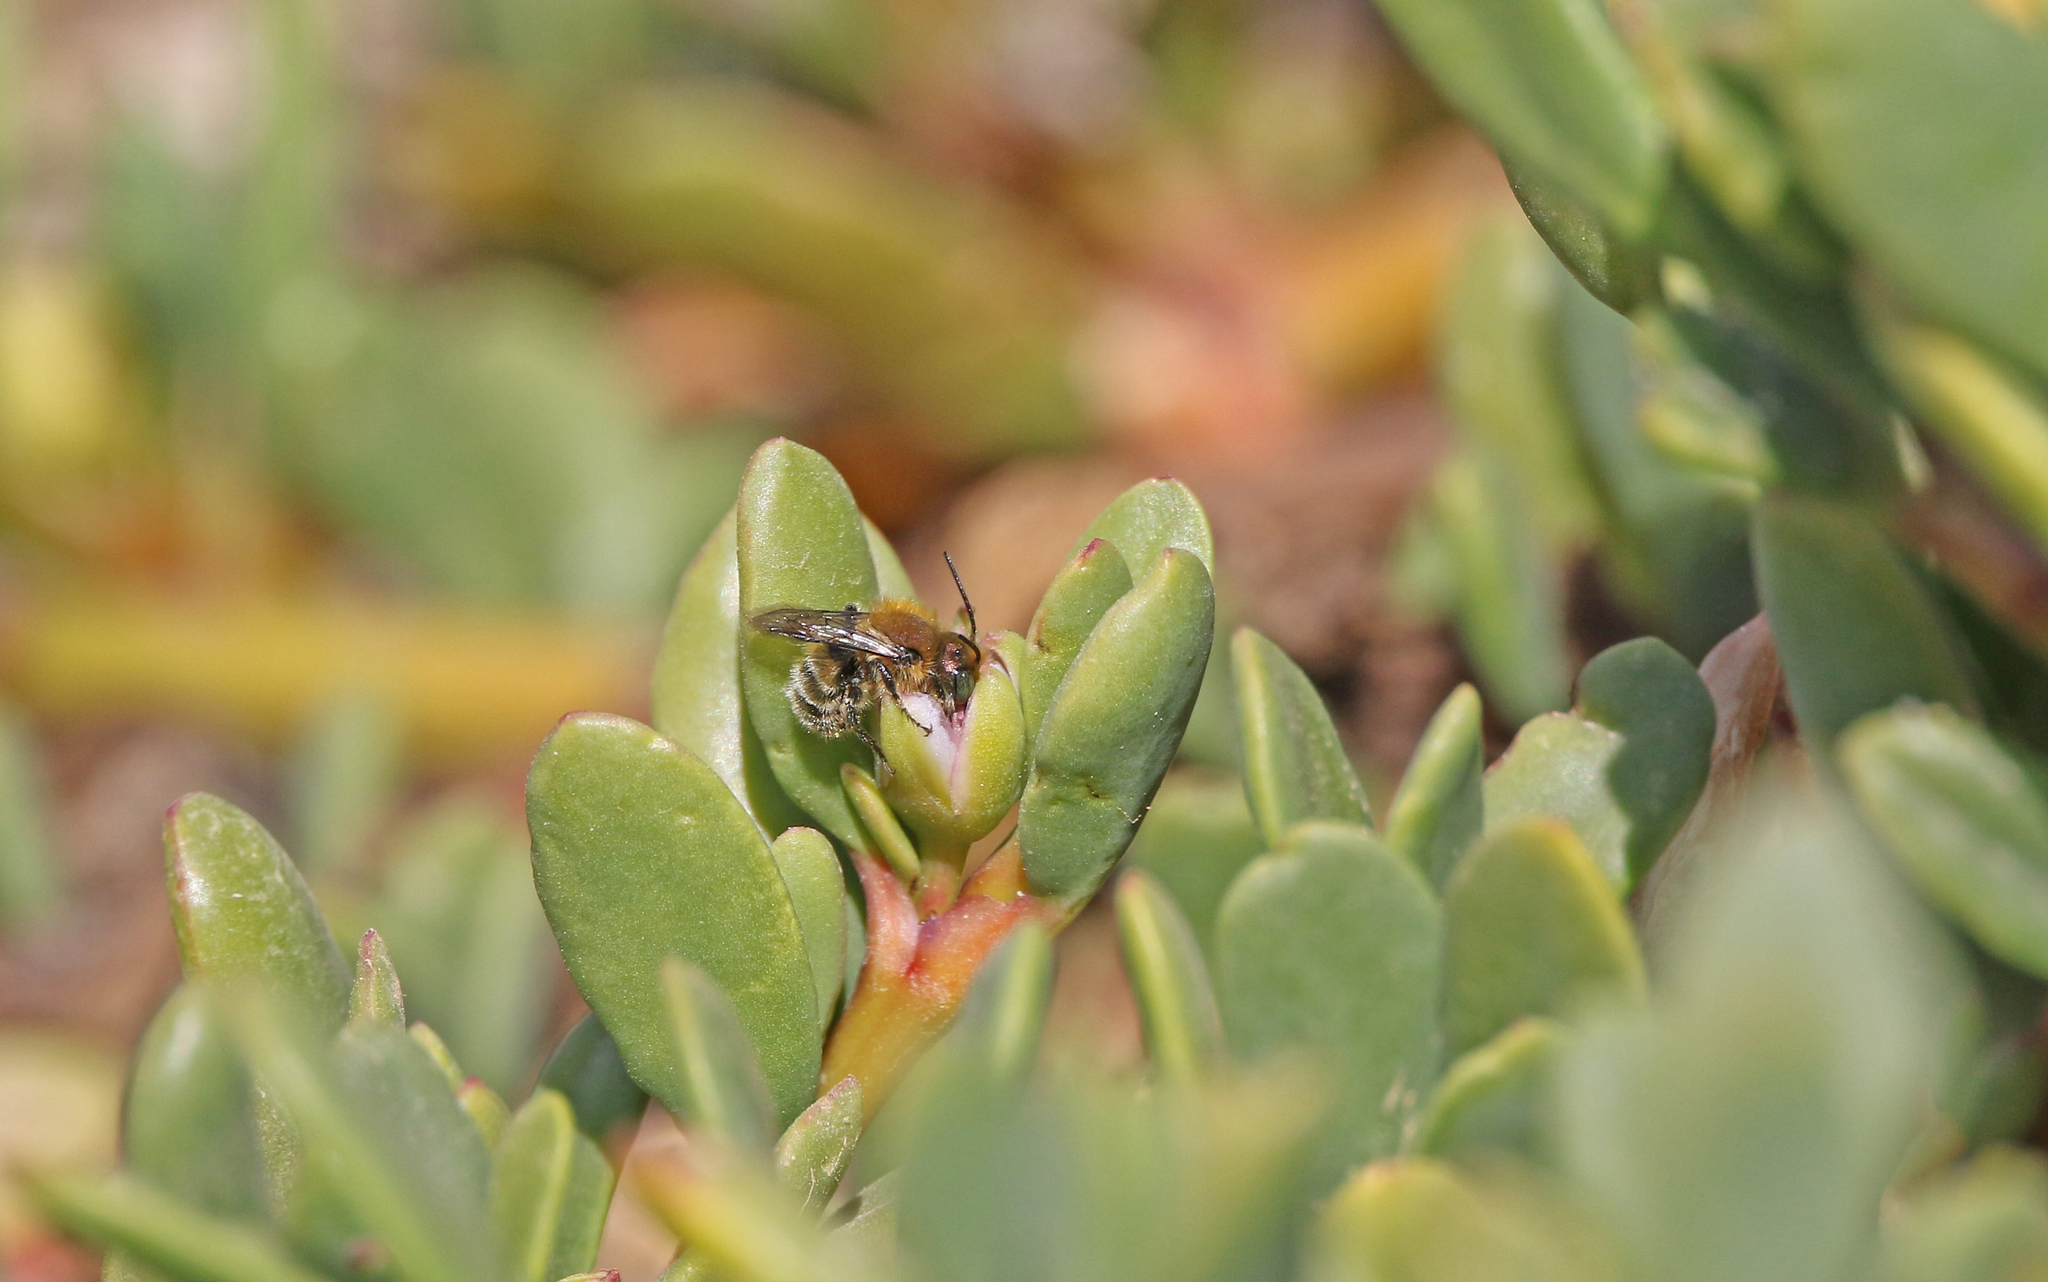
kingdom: Animalia
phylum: Arthropoda
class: Insecta
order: Hymenoptera
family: Megachilidae
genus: Osmia
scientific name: Osmia latreillei
